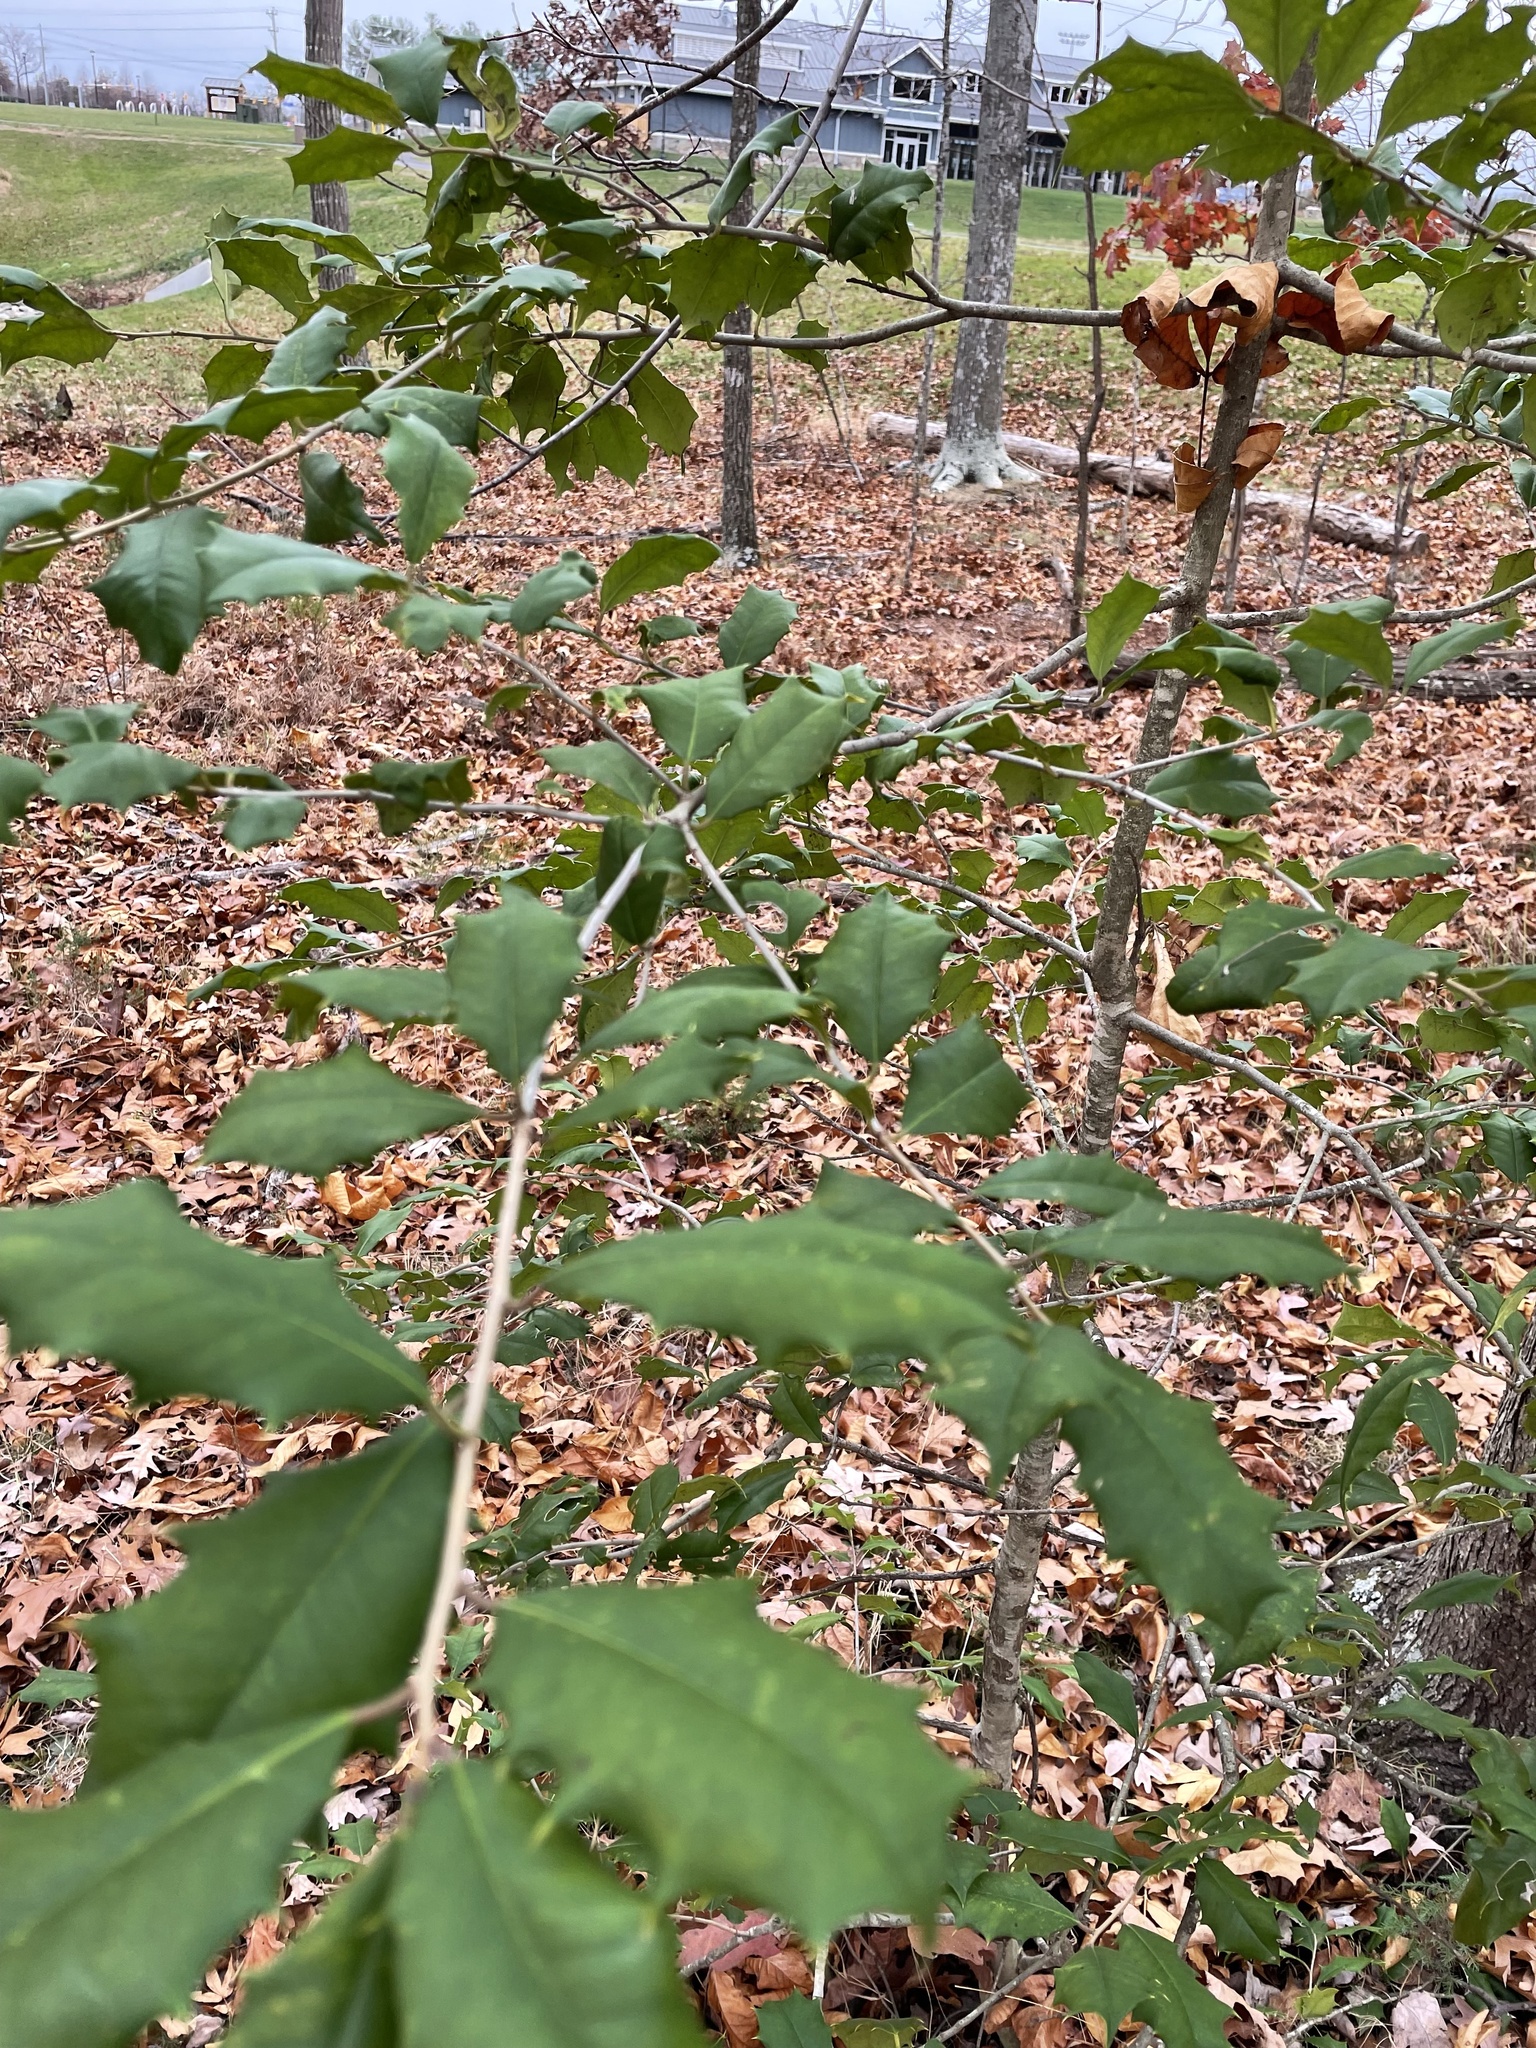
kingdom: Plantae
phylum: Tracheophyta
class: Magnoliopsida
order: Aquifoliales
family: Aquifoliaceae
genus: Ilex
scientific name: Ilex opaca
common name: American holly
